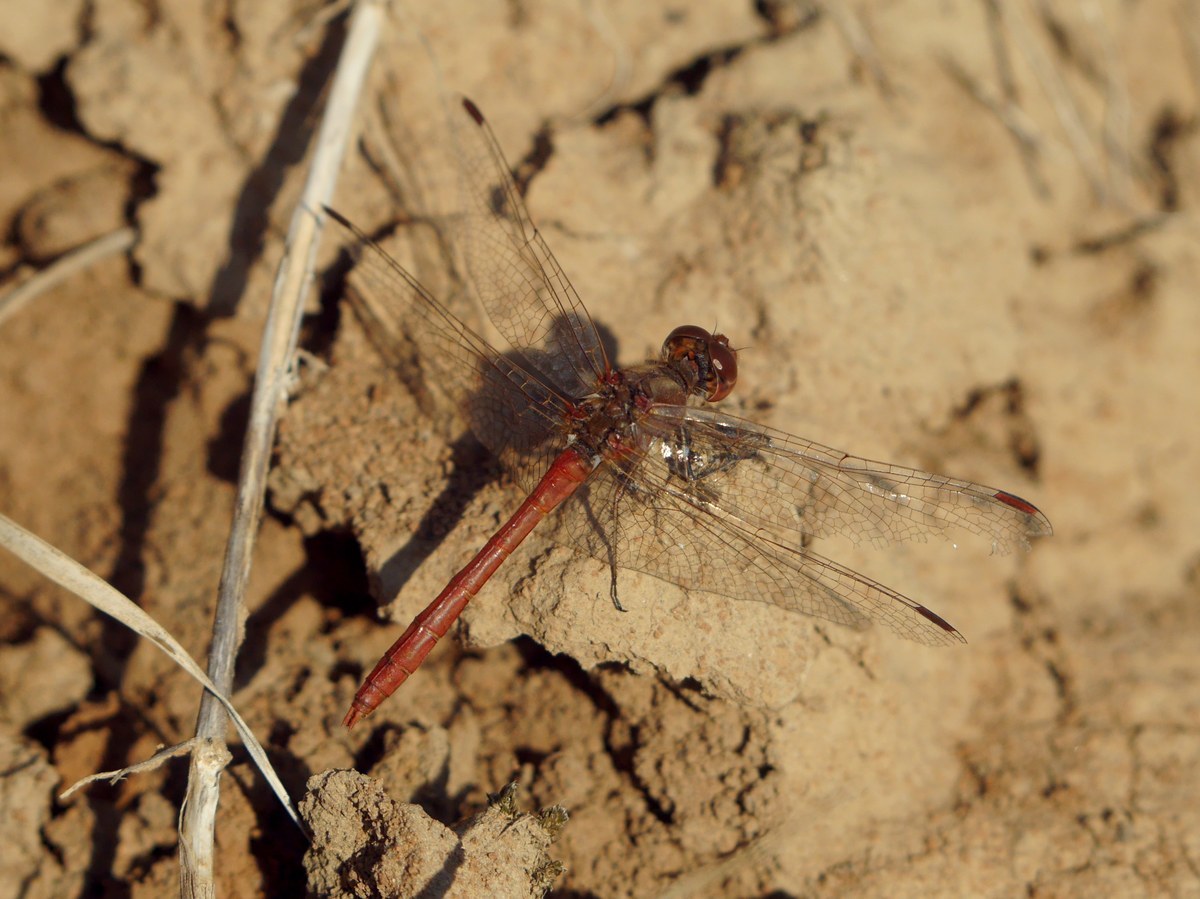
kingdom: Animalia
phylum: Arthropoda
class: Insecta
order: Odonata
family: Libellulidae
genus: Sympetrum
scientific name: Sympetrum meridionale
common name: Southern darter
